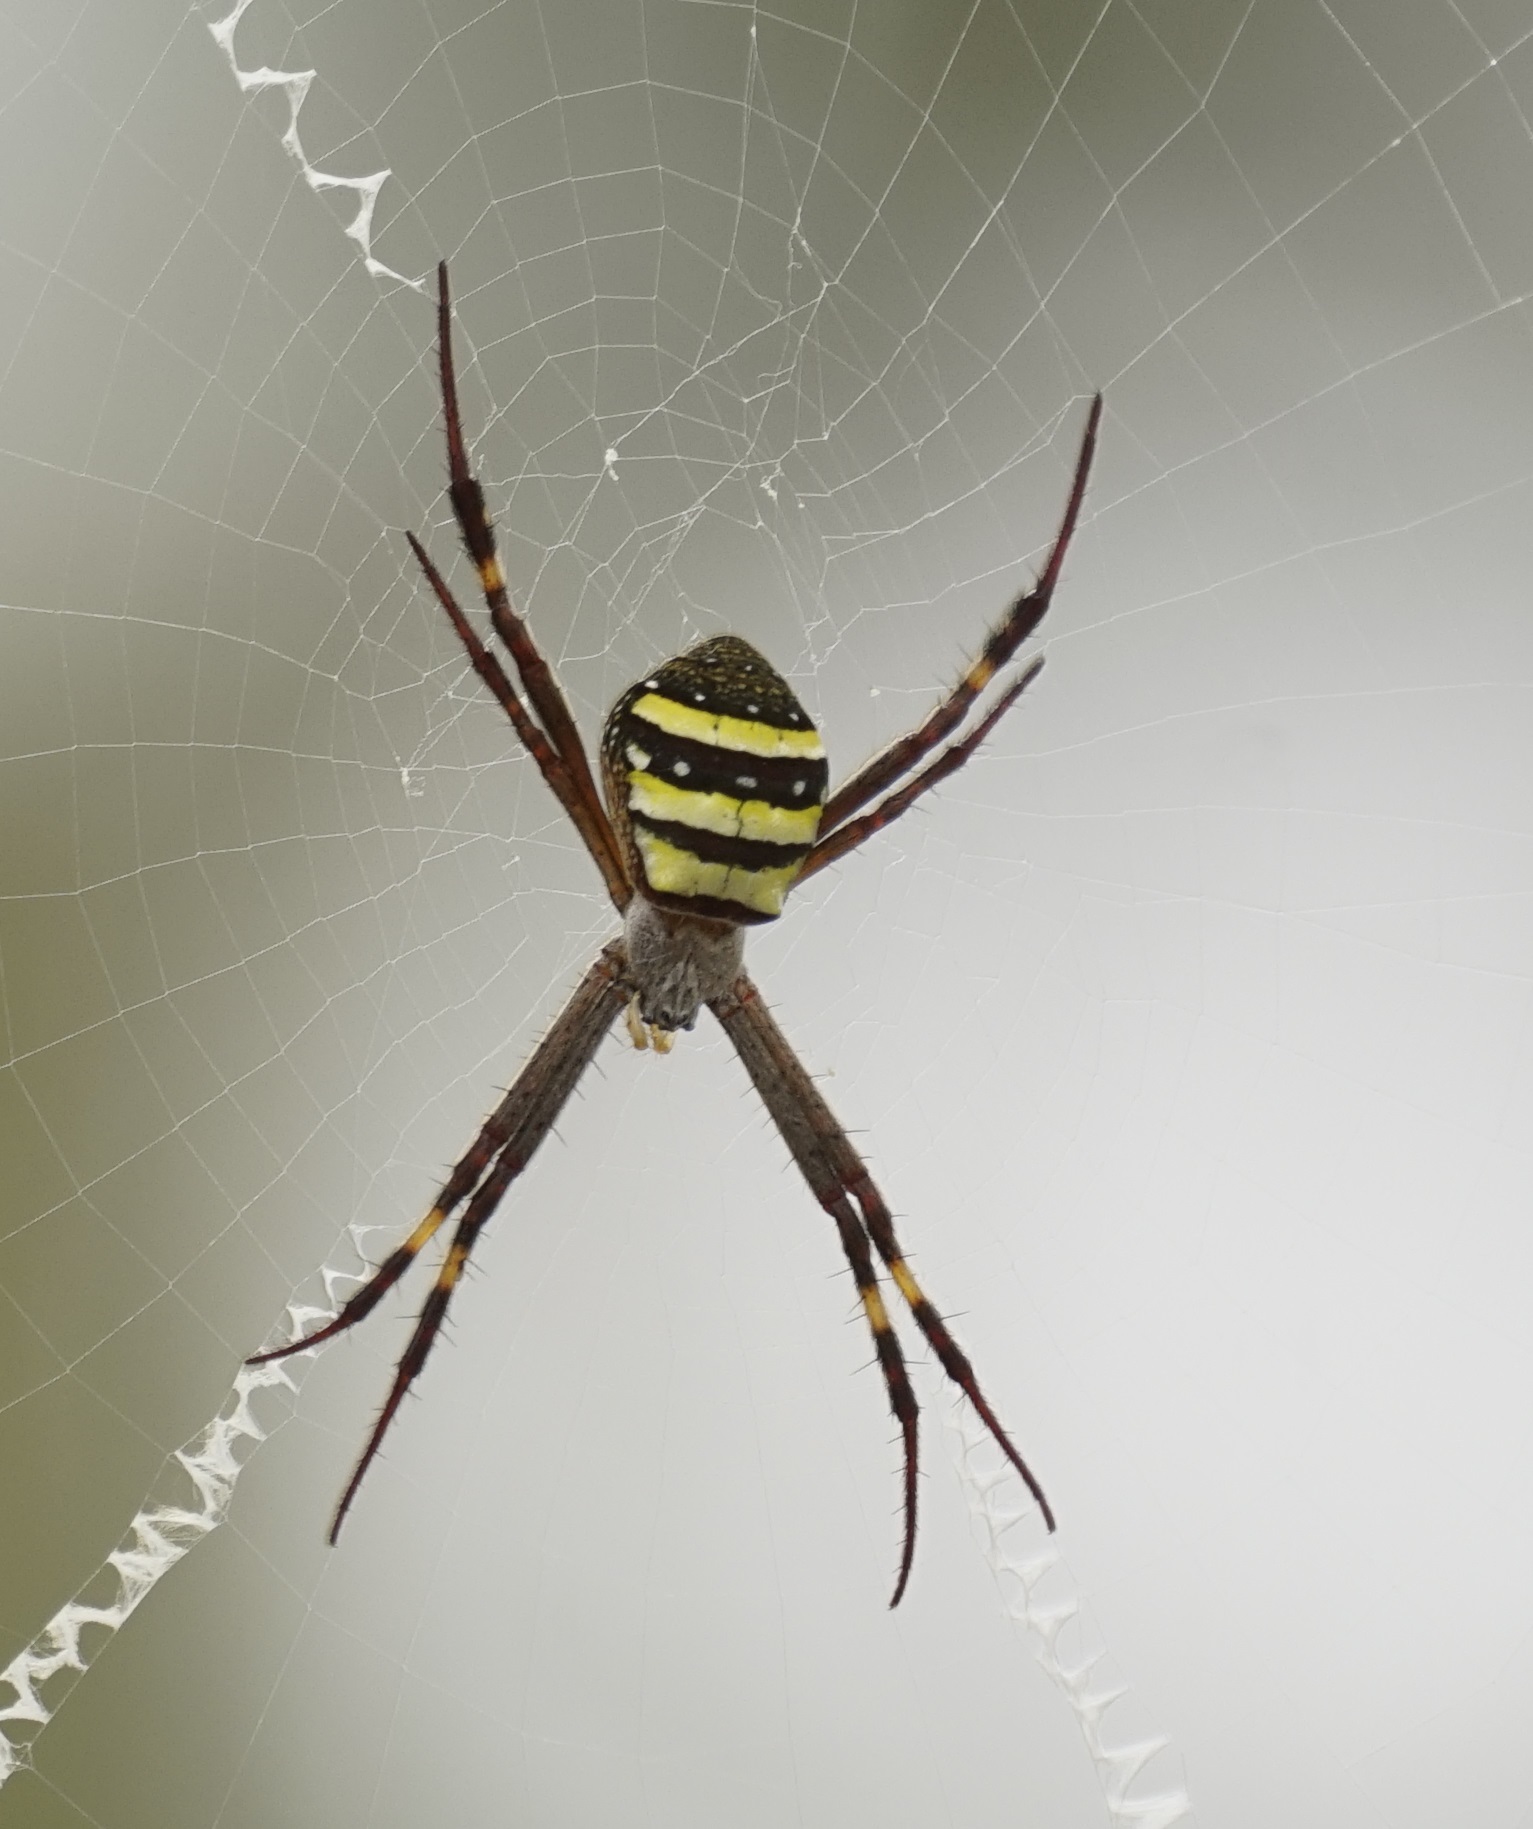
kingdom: Animalia
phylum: Arthropoda
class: Arachnida
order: Araneae
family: Araneidae
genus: Argiope
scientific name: Argiope keyserlingi
